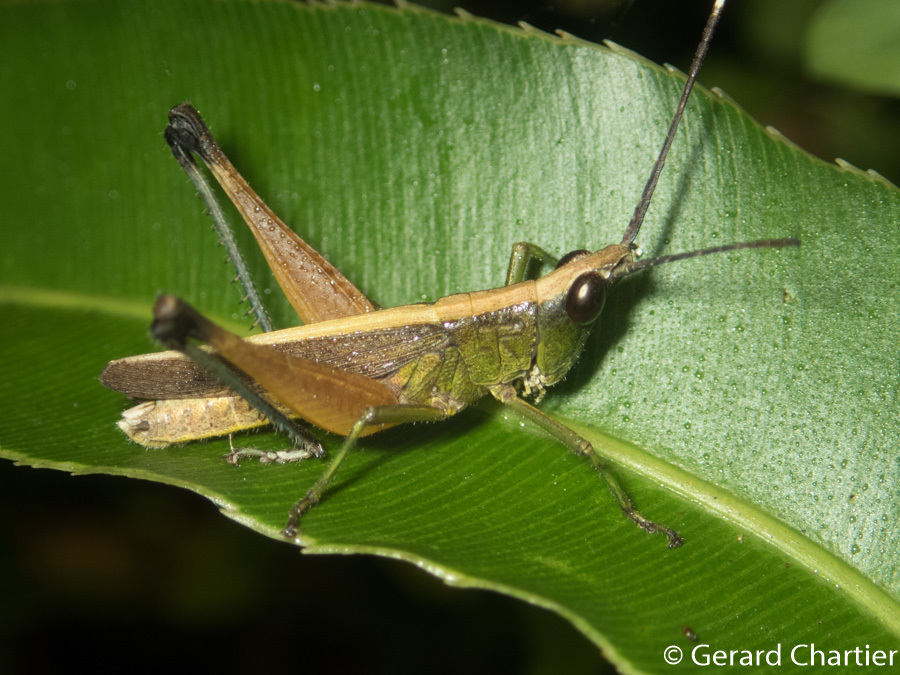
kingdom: Animalia
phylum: Arthropoda
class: Insecta
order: Orthoptera
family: Acrididae
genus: Phlaeoba
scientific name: Phlaeoba antennata
